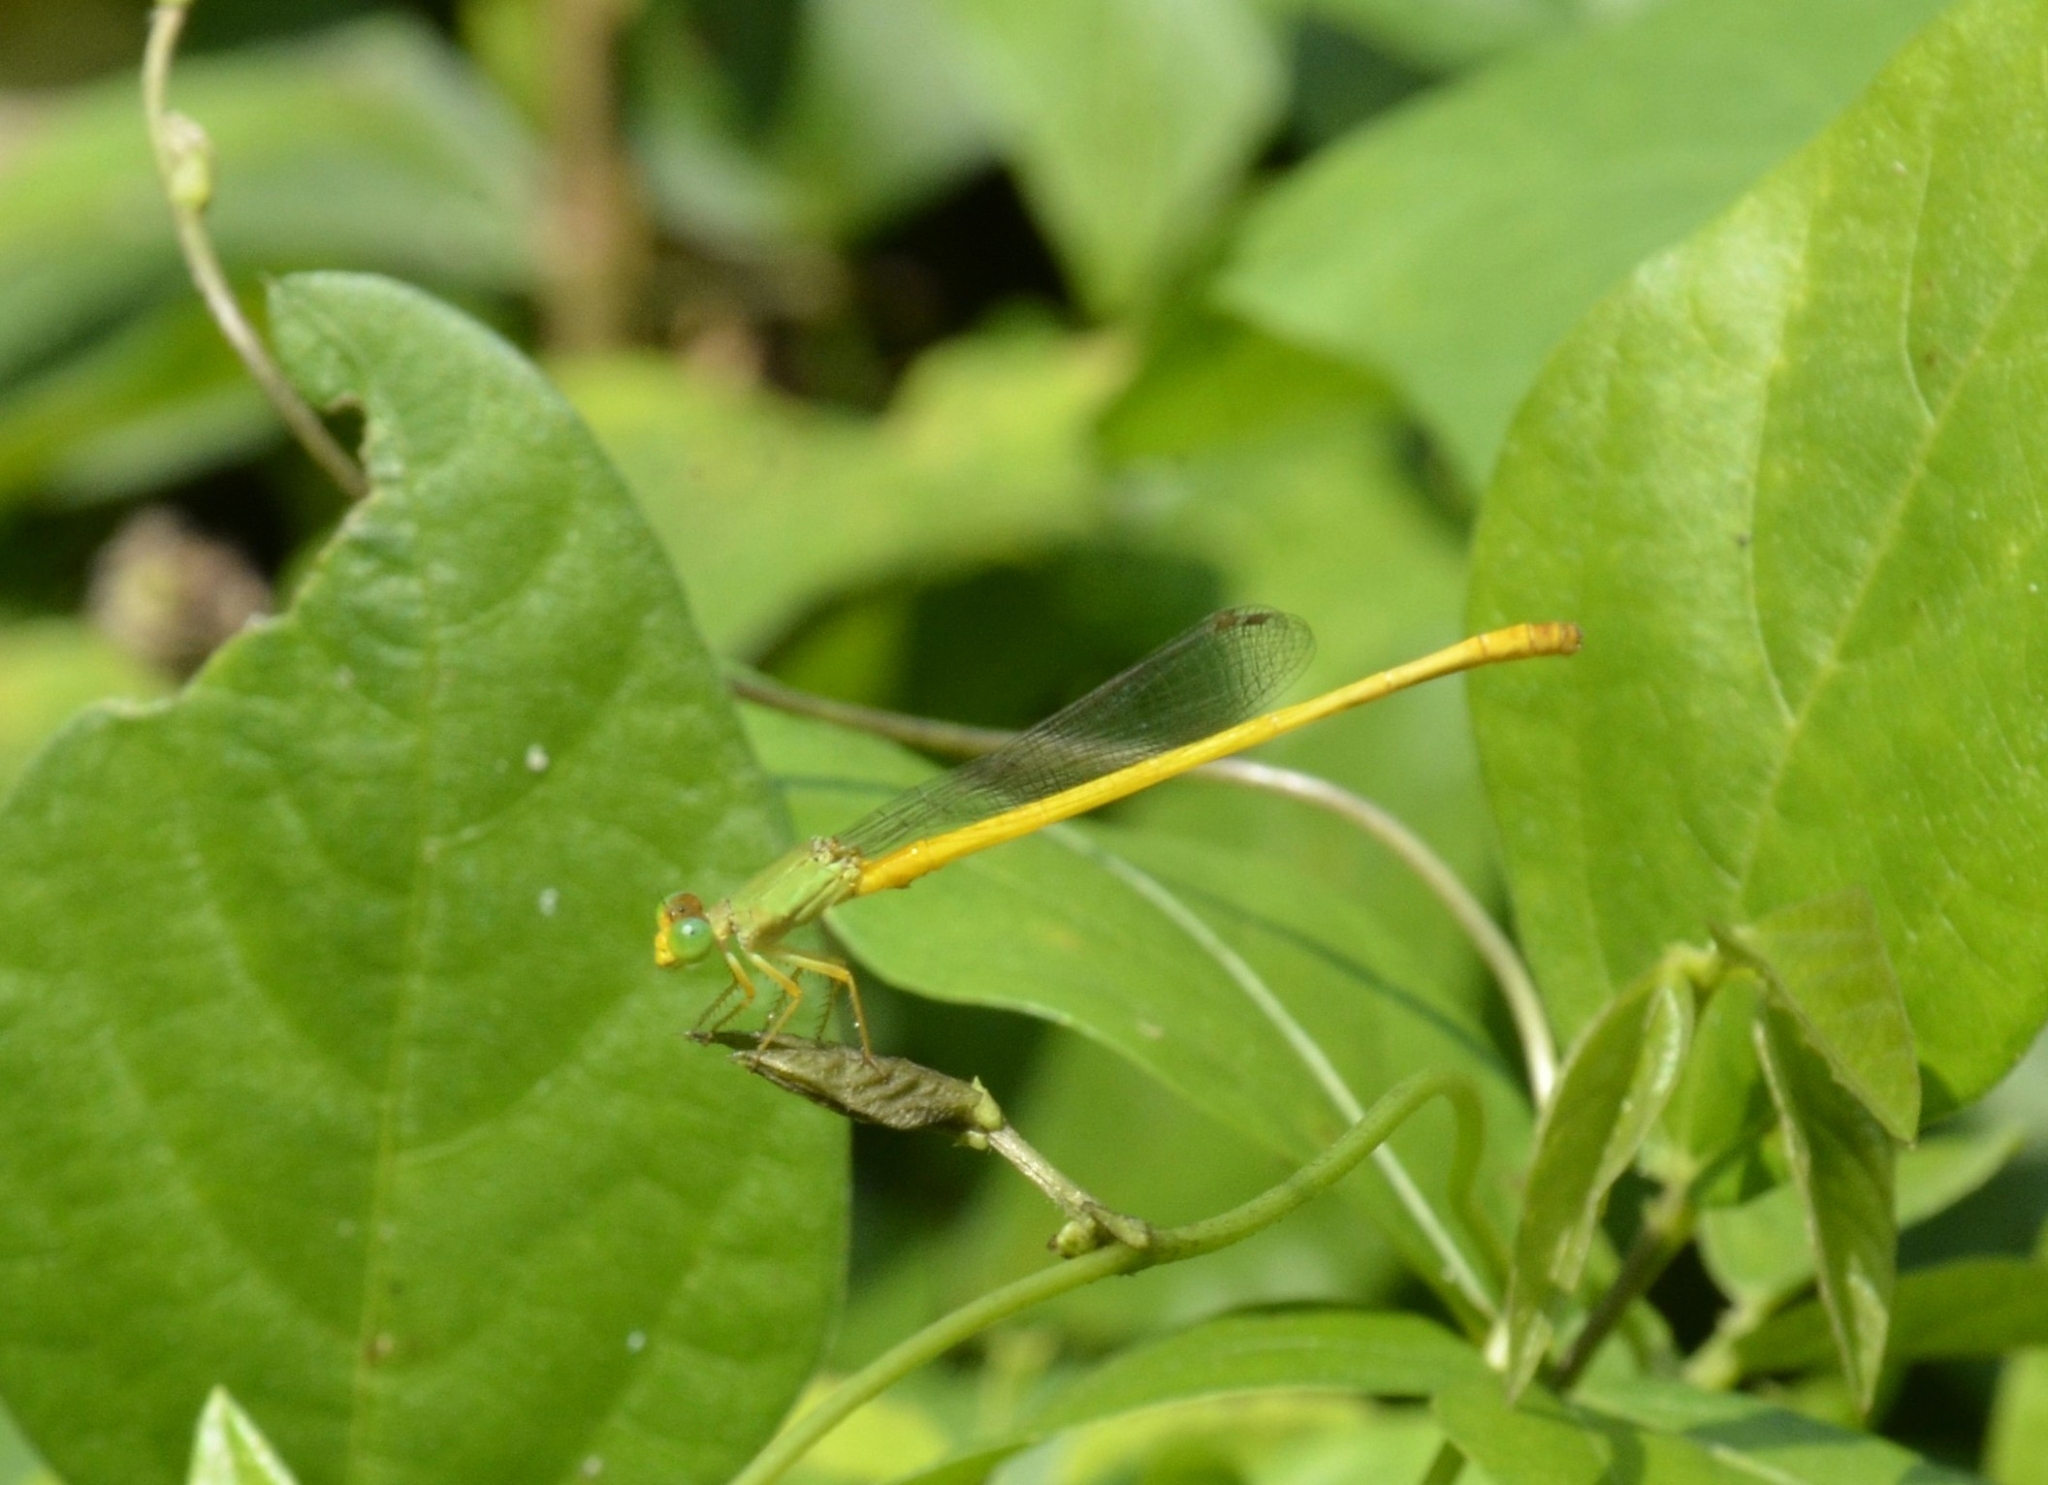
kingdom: Animalia
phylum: Arthropoda
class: Insecta
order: Odonata
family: Coenagrionidae
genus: Ceriagrion
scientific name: Ceriagrion coromandelianum
